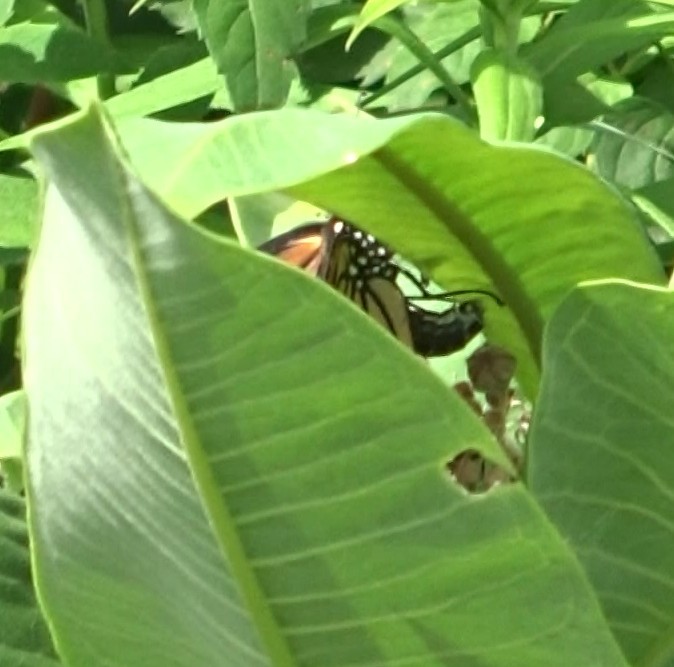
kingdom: Animalia
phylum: Arthropoda
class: Insecta
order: Lepidoptera
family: Nymphalidae
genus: Danaus
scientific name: Danaus plexippus
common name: Monarch
